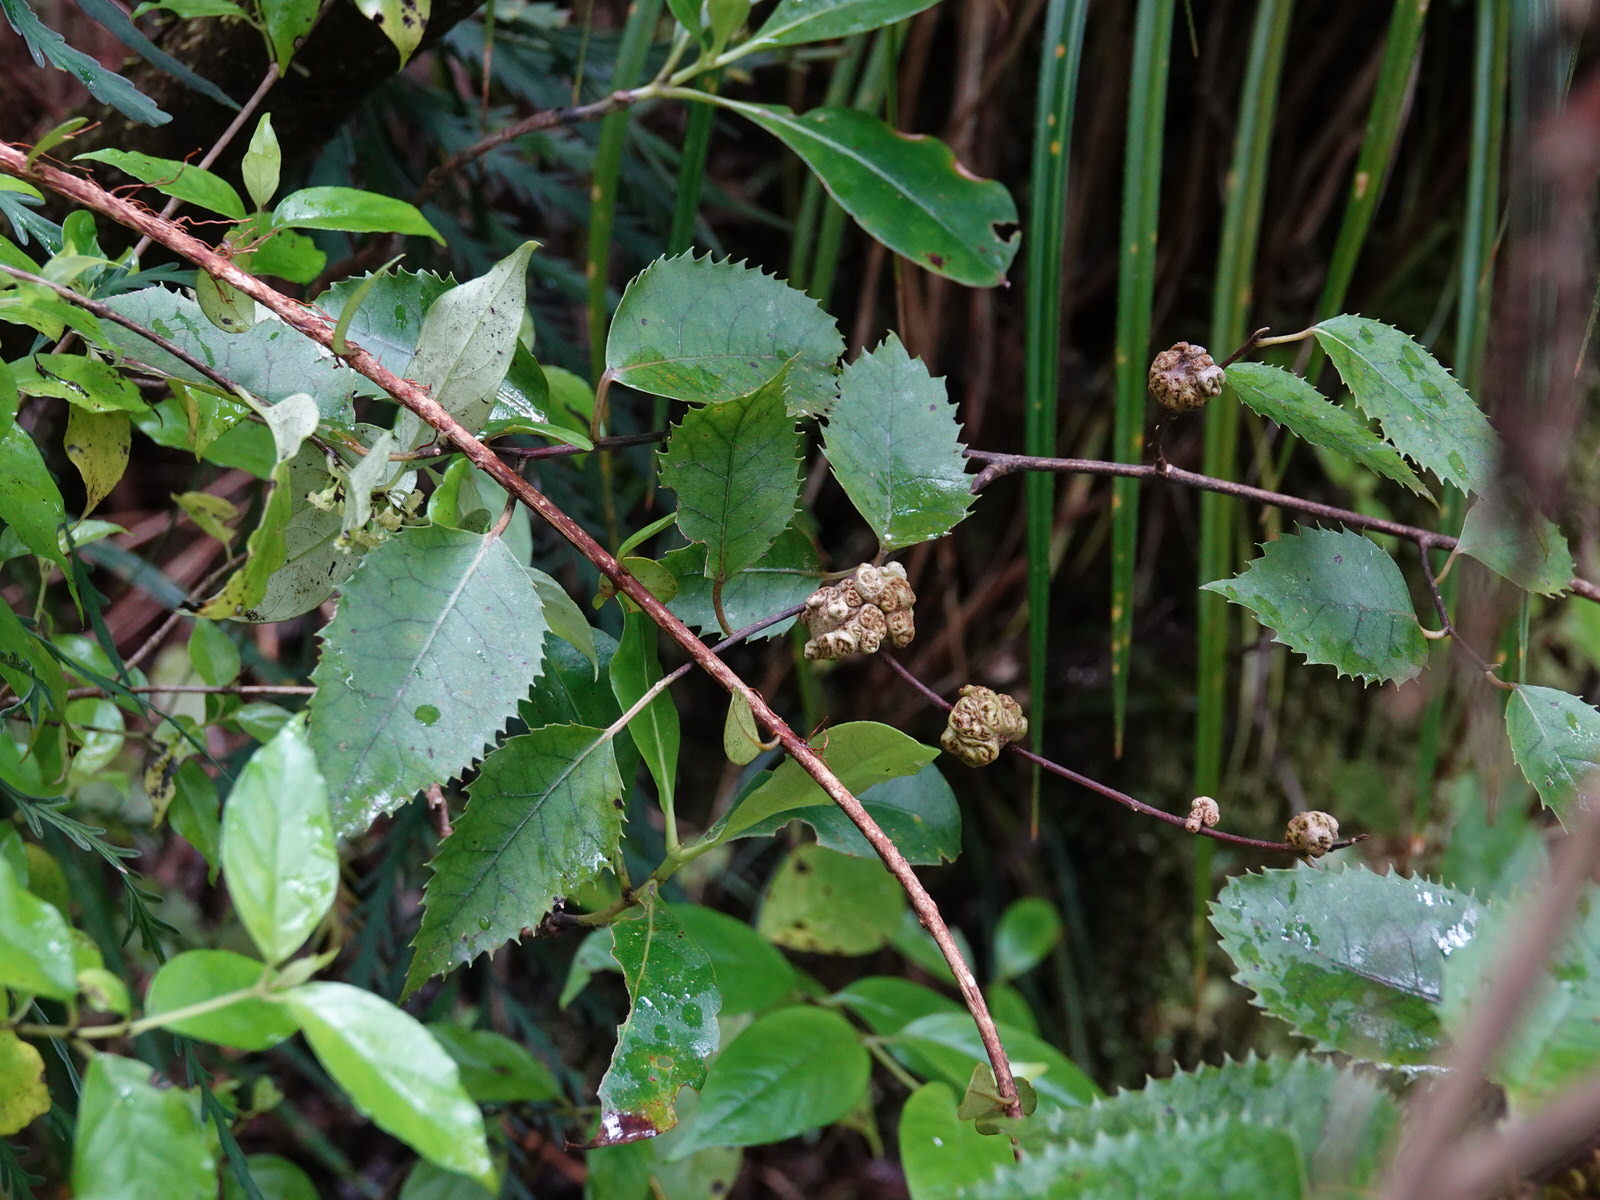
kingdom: Plantae
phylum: Tracheophyta
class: Magnoliopsida
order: Malvales
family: Malvaceae
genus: Hoheria
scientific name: Hoheria populnea
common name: Lacebark
